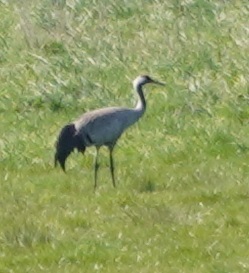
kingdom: Animalia
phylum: Chordata
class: Aves
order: Gruiformes
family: Gruidae
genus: Grus
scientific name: Grus grus
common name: Common crane
